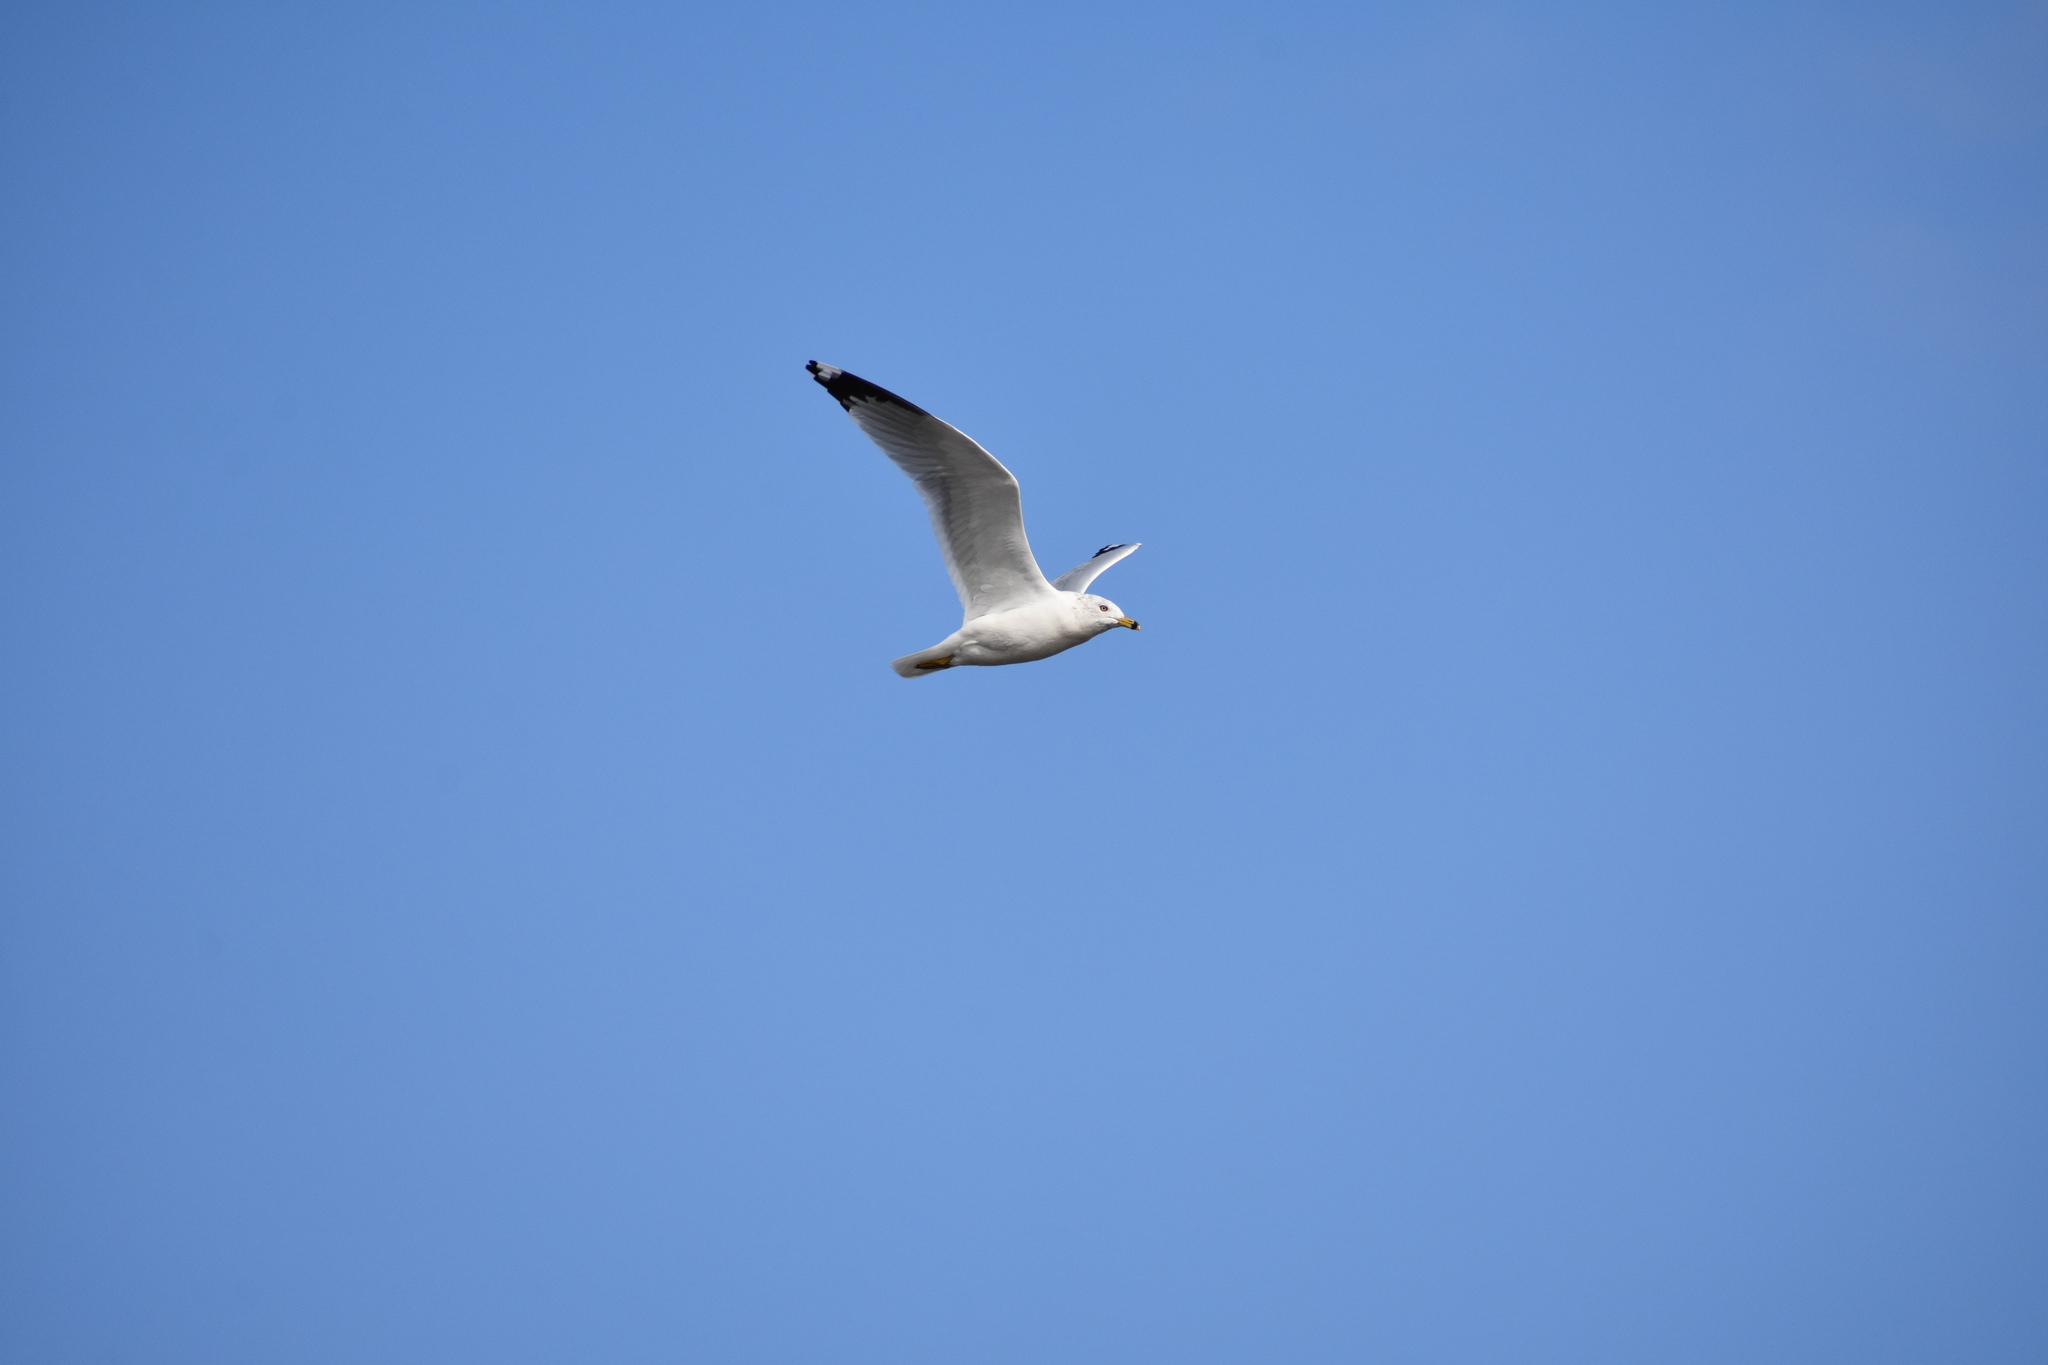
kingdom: Animalia
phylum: Chordata
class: Aves
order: Charadriiformes
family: Laridae
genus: Larus
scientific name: Larus delawarensis
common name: Ring-billed gull
